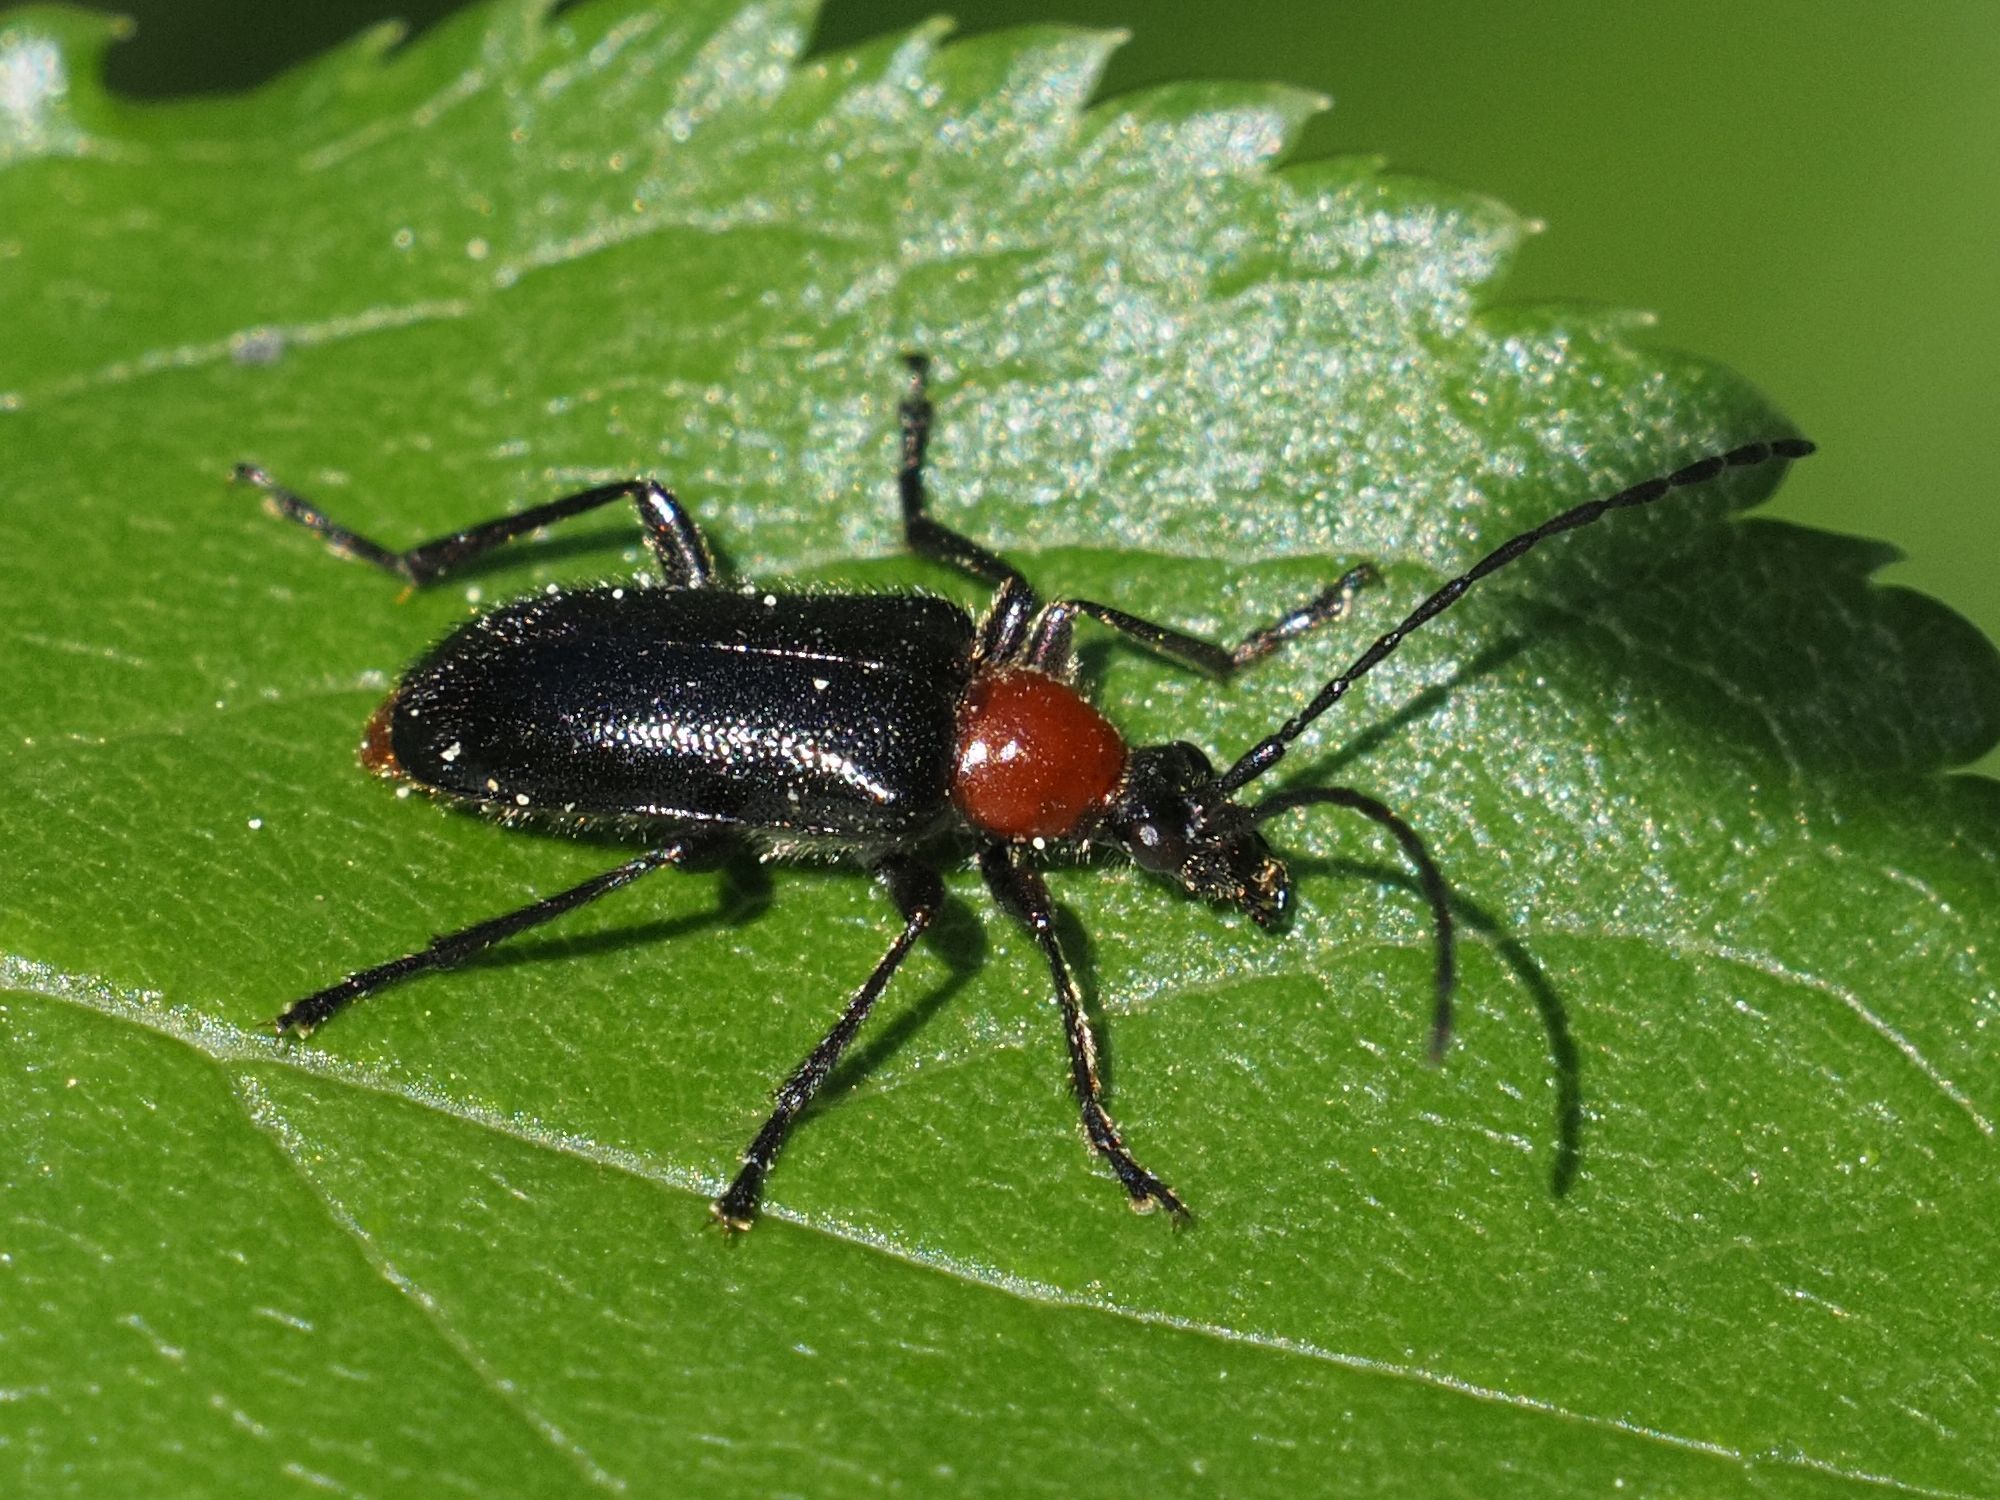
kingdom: Animalia
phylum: Arthropoda
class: Insecta
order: Coleoptera
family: Cerambycidae
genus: Dinoptera
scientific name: Dinoptera collaris
